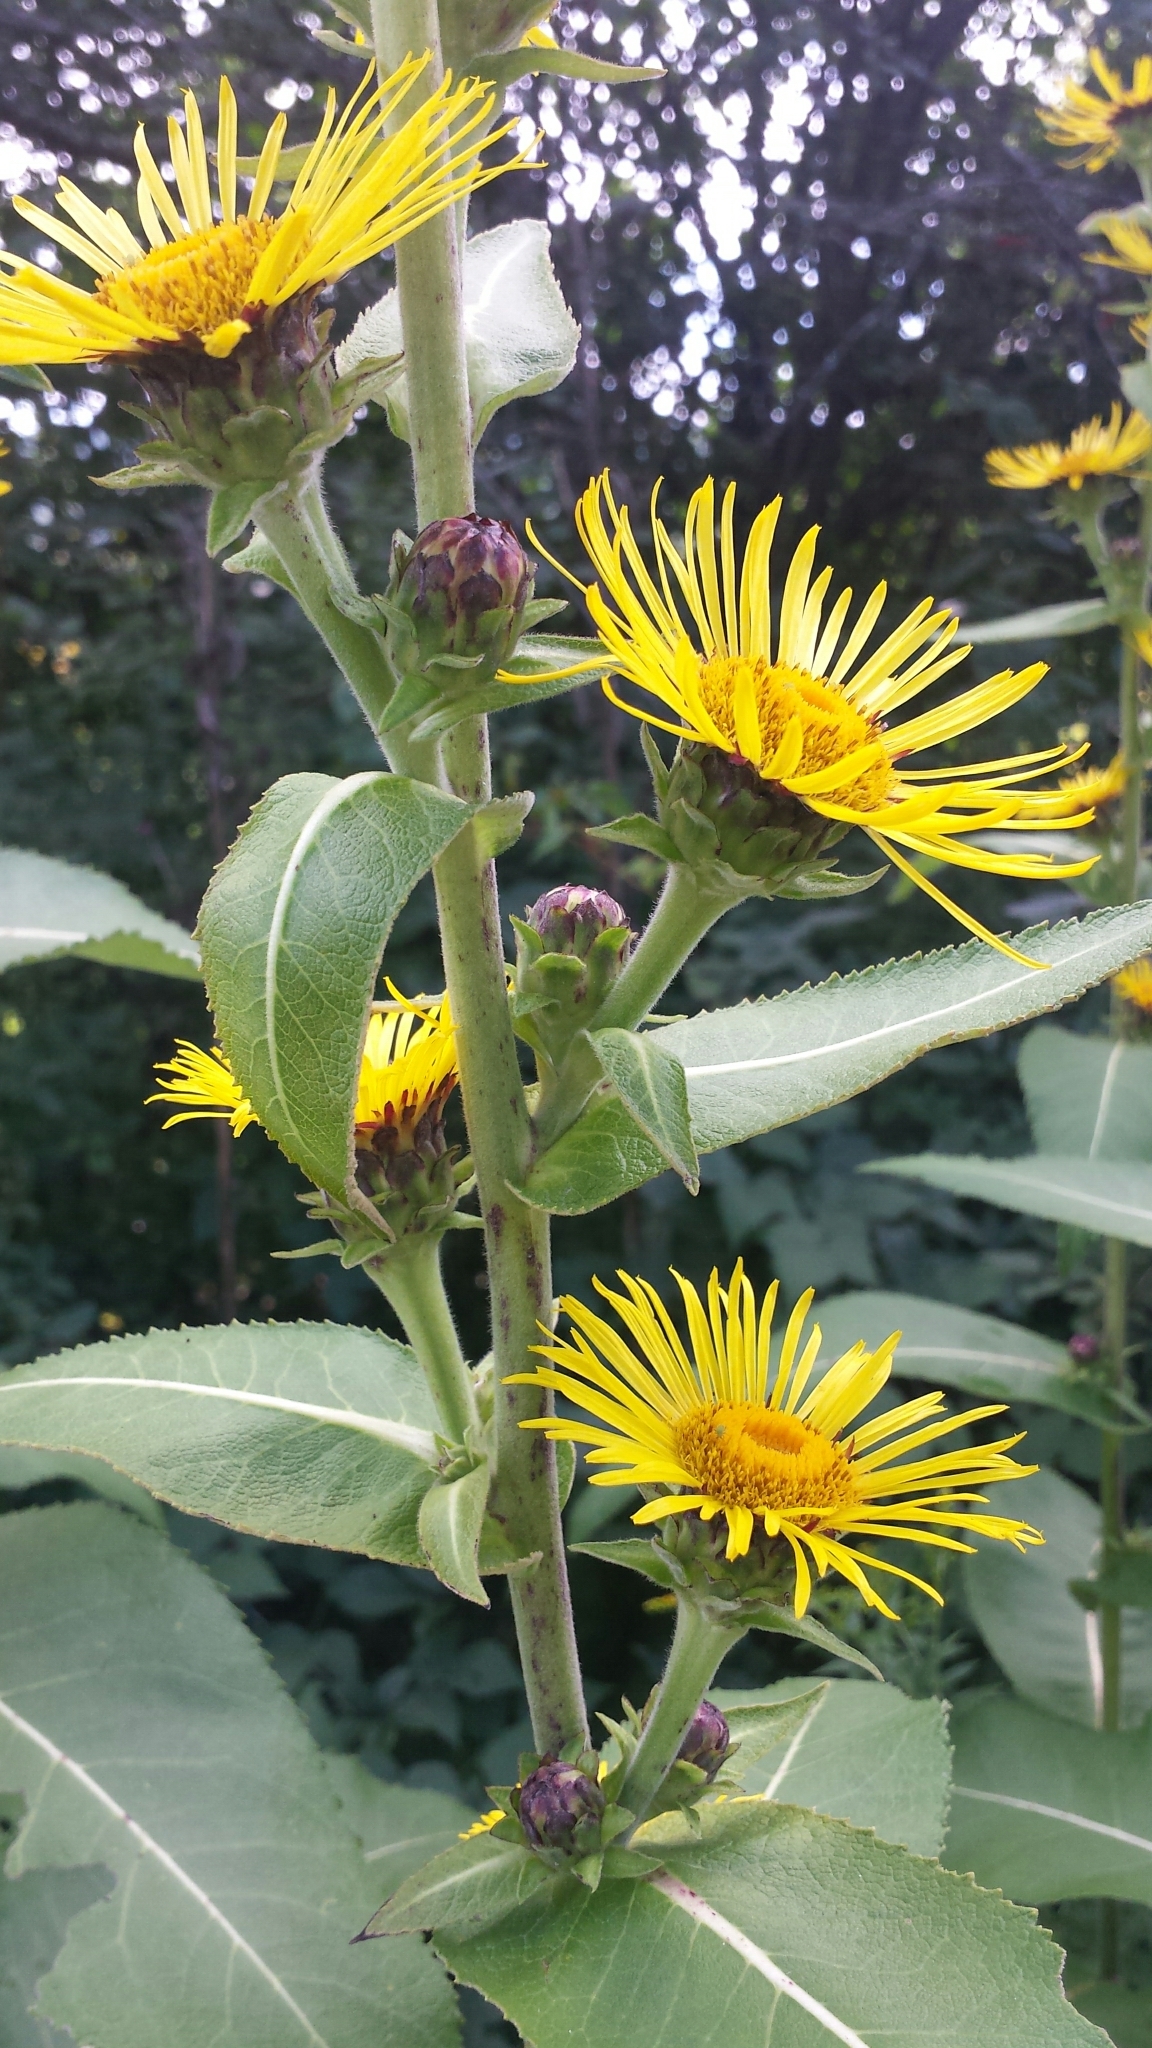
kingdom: Plantae
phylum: Tracheophyta
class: Magnoliopsida
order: Asterales
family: Asteraceae
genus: Inula
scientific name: Inula racemosa
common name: Indian elecampane
